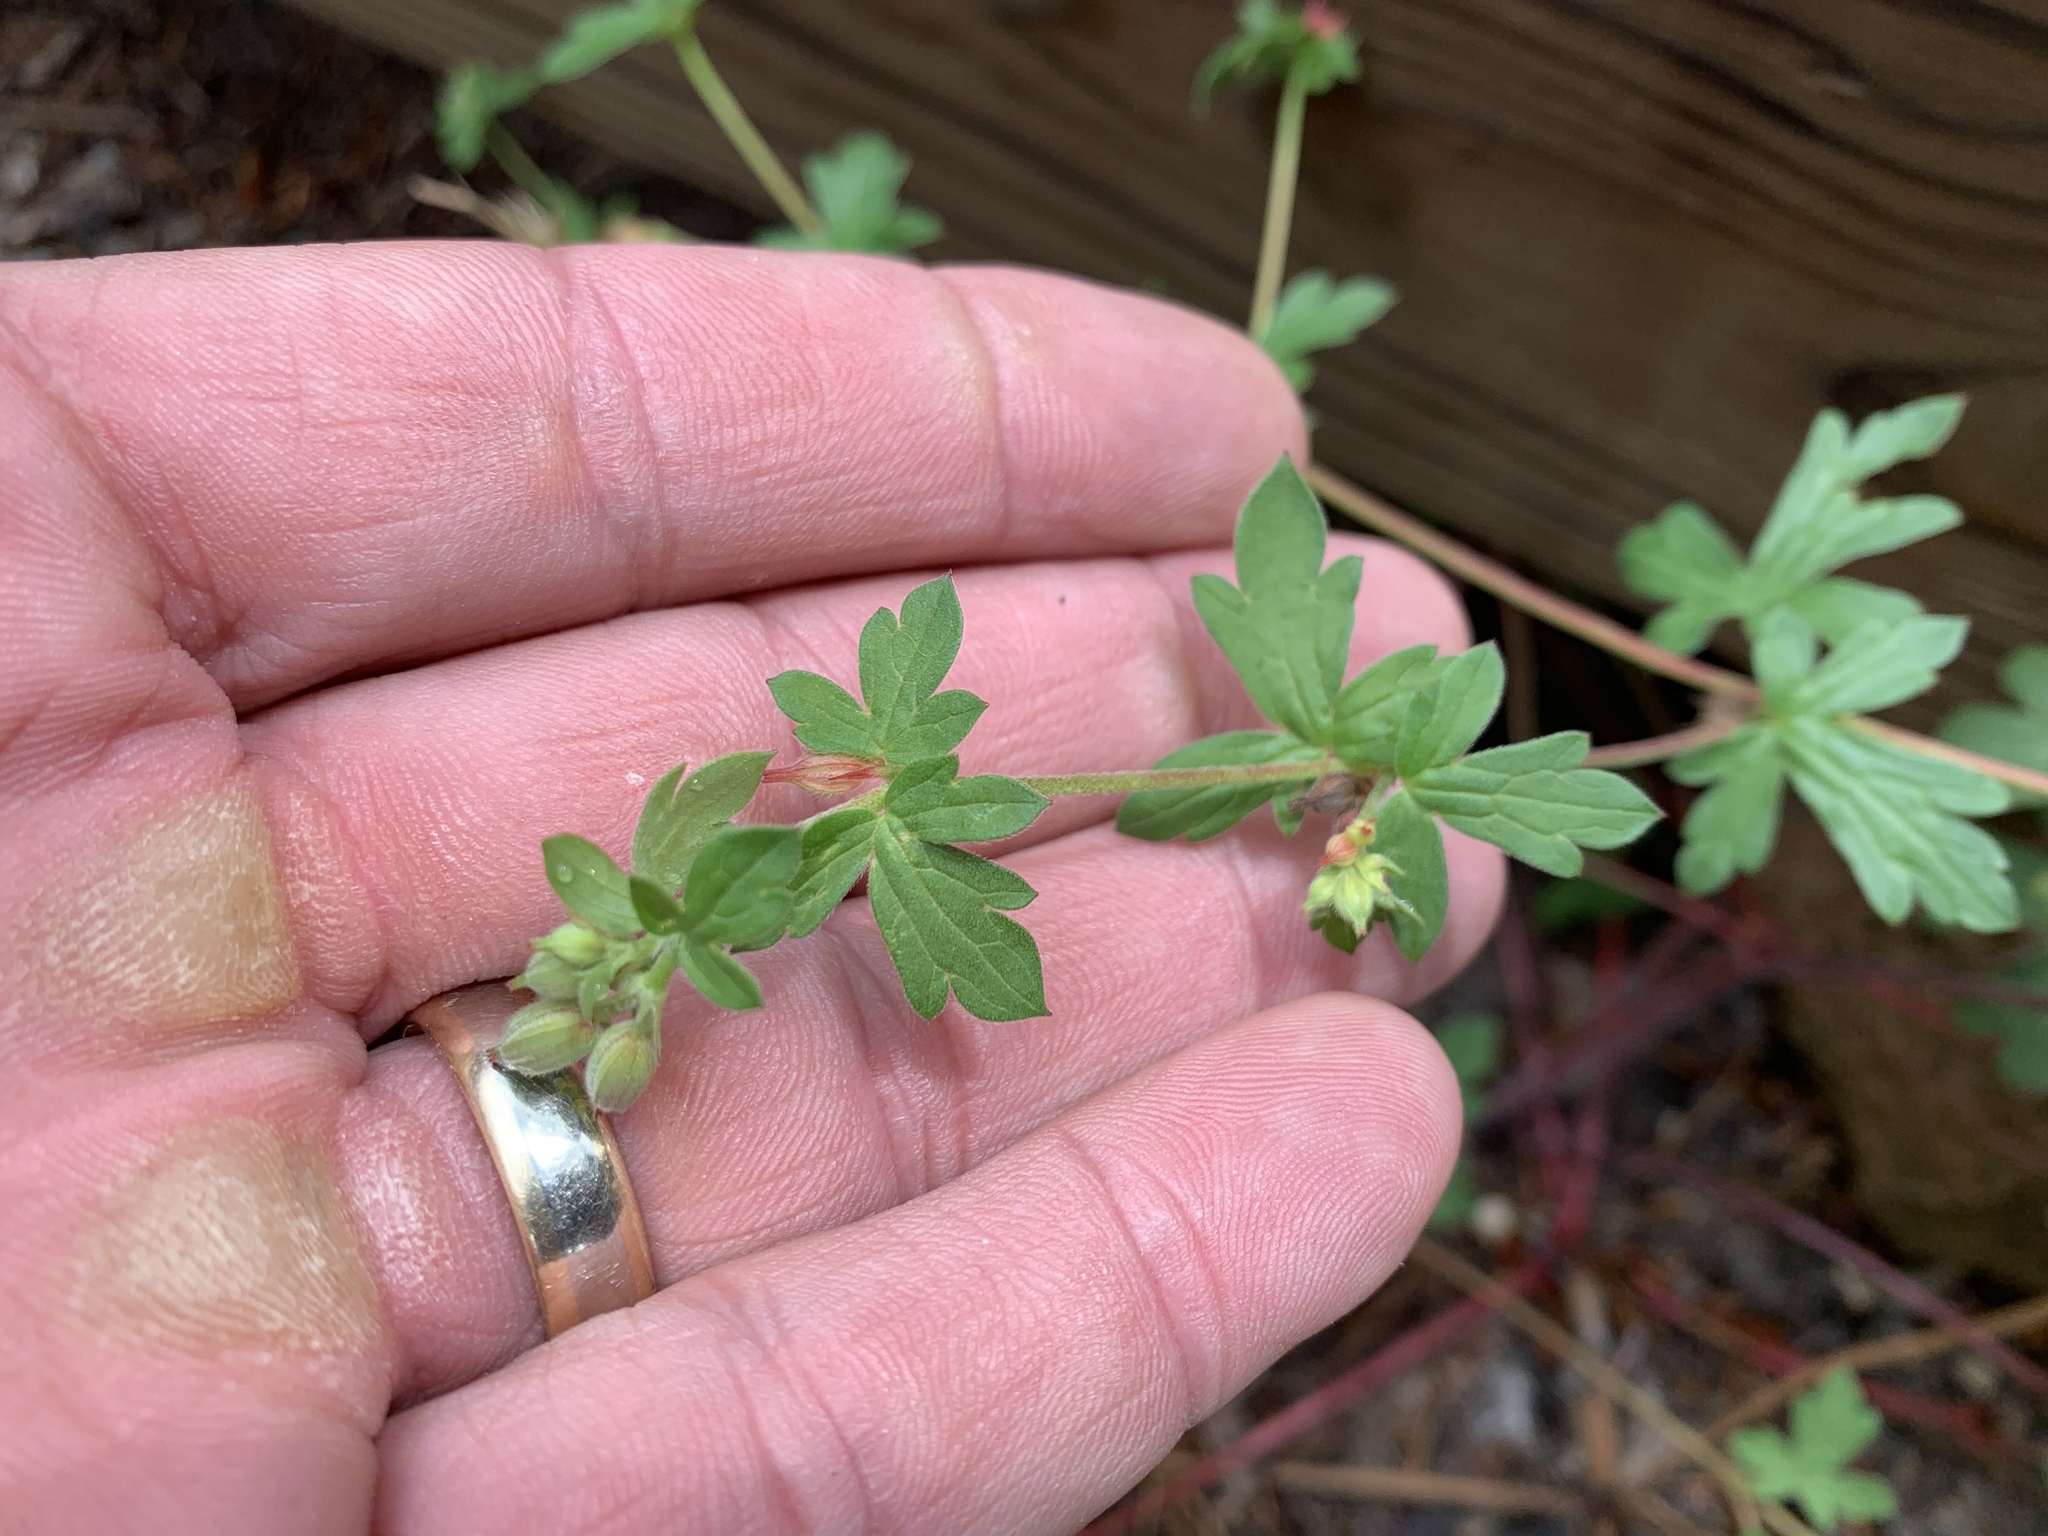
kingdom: Plantae
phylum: Tracheophyta
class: Magnoliopsida
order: Geraniales
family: Geraniaceae
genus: Geranium
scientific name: Geranium caespitosum
